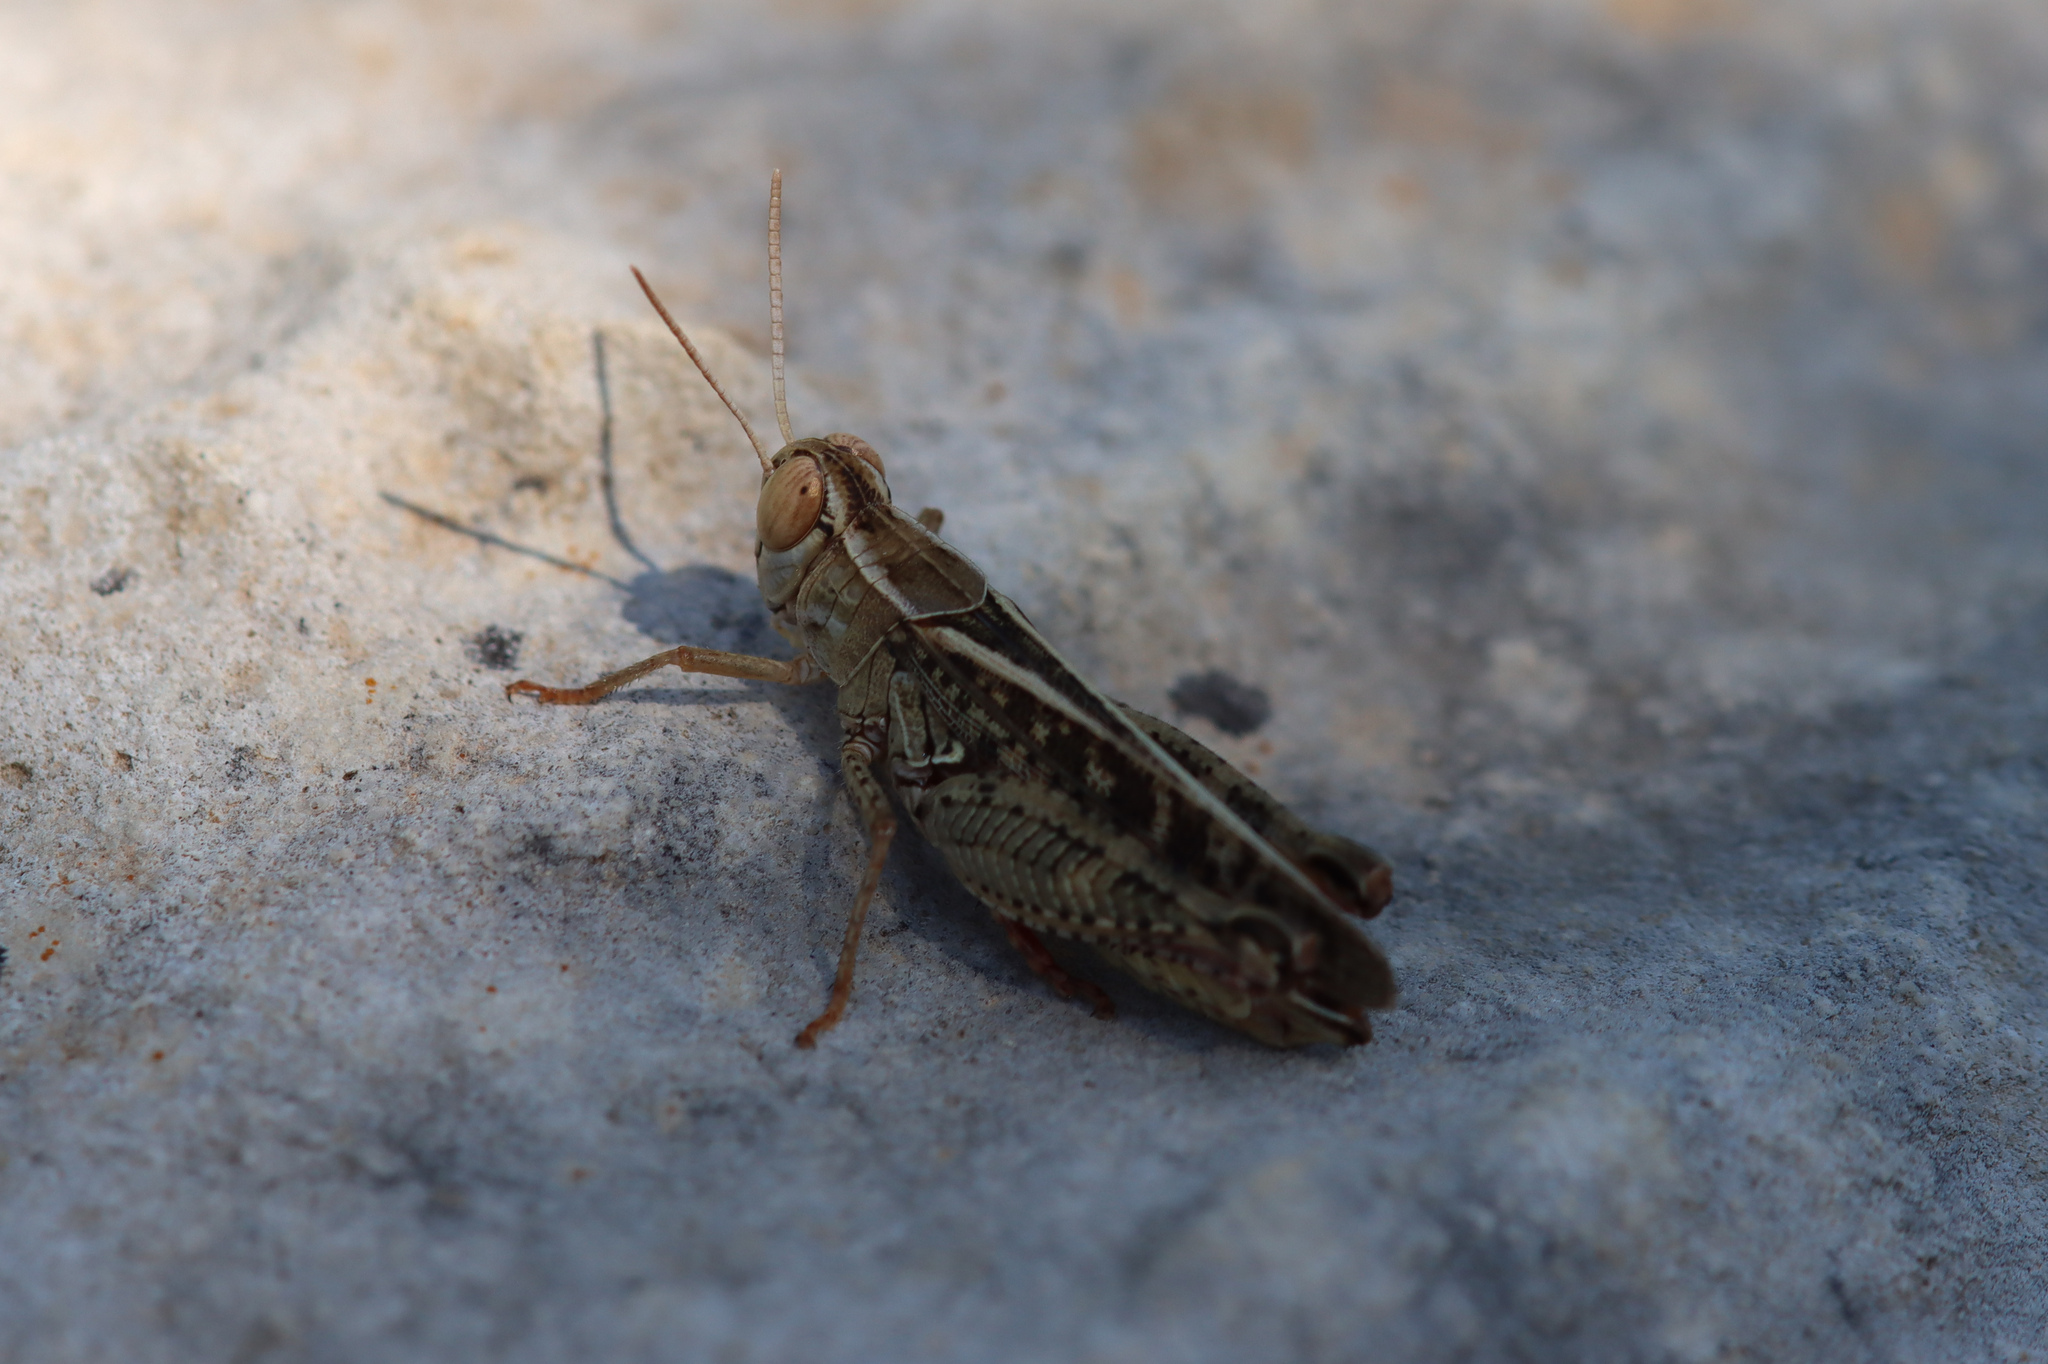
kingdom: Animalia
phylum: Arthropoda
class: Insecta
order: Orthoptera
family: Acrididae
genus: Calliptamus
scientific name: Calliptamus italicus
